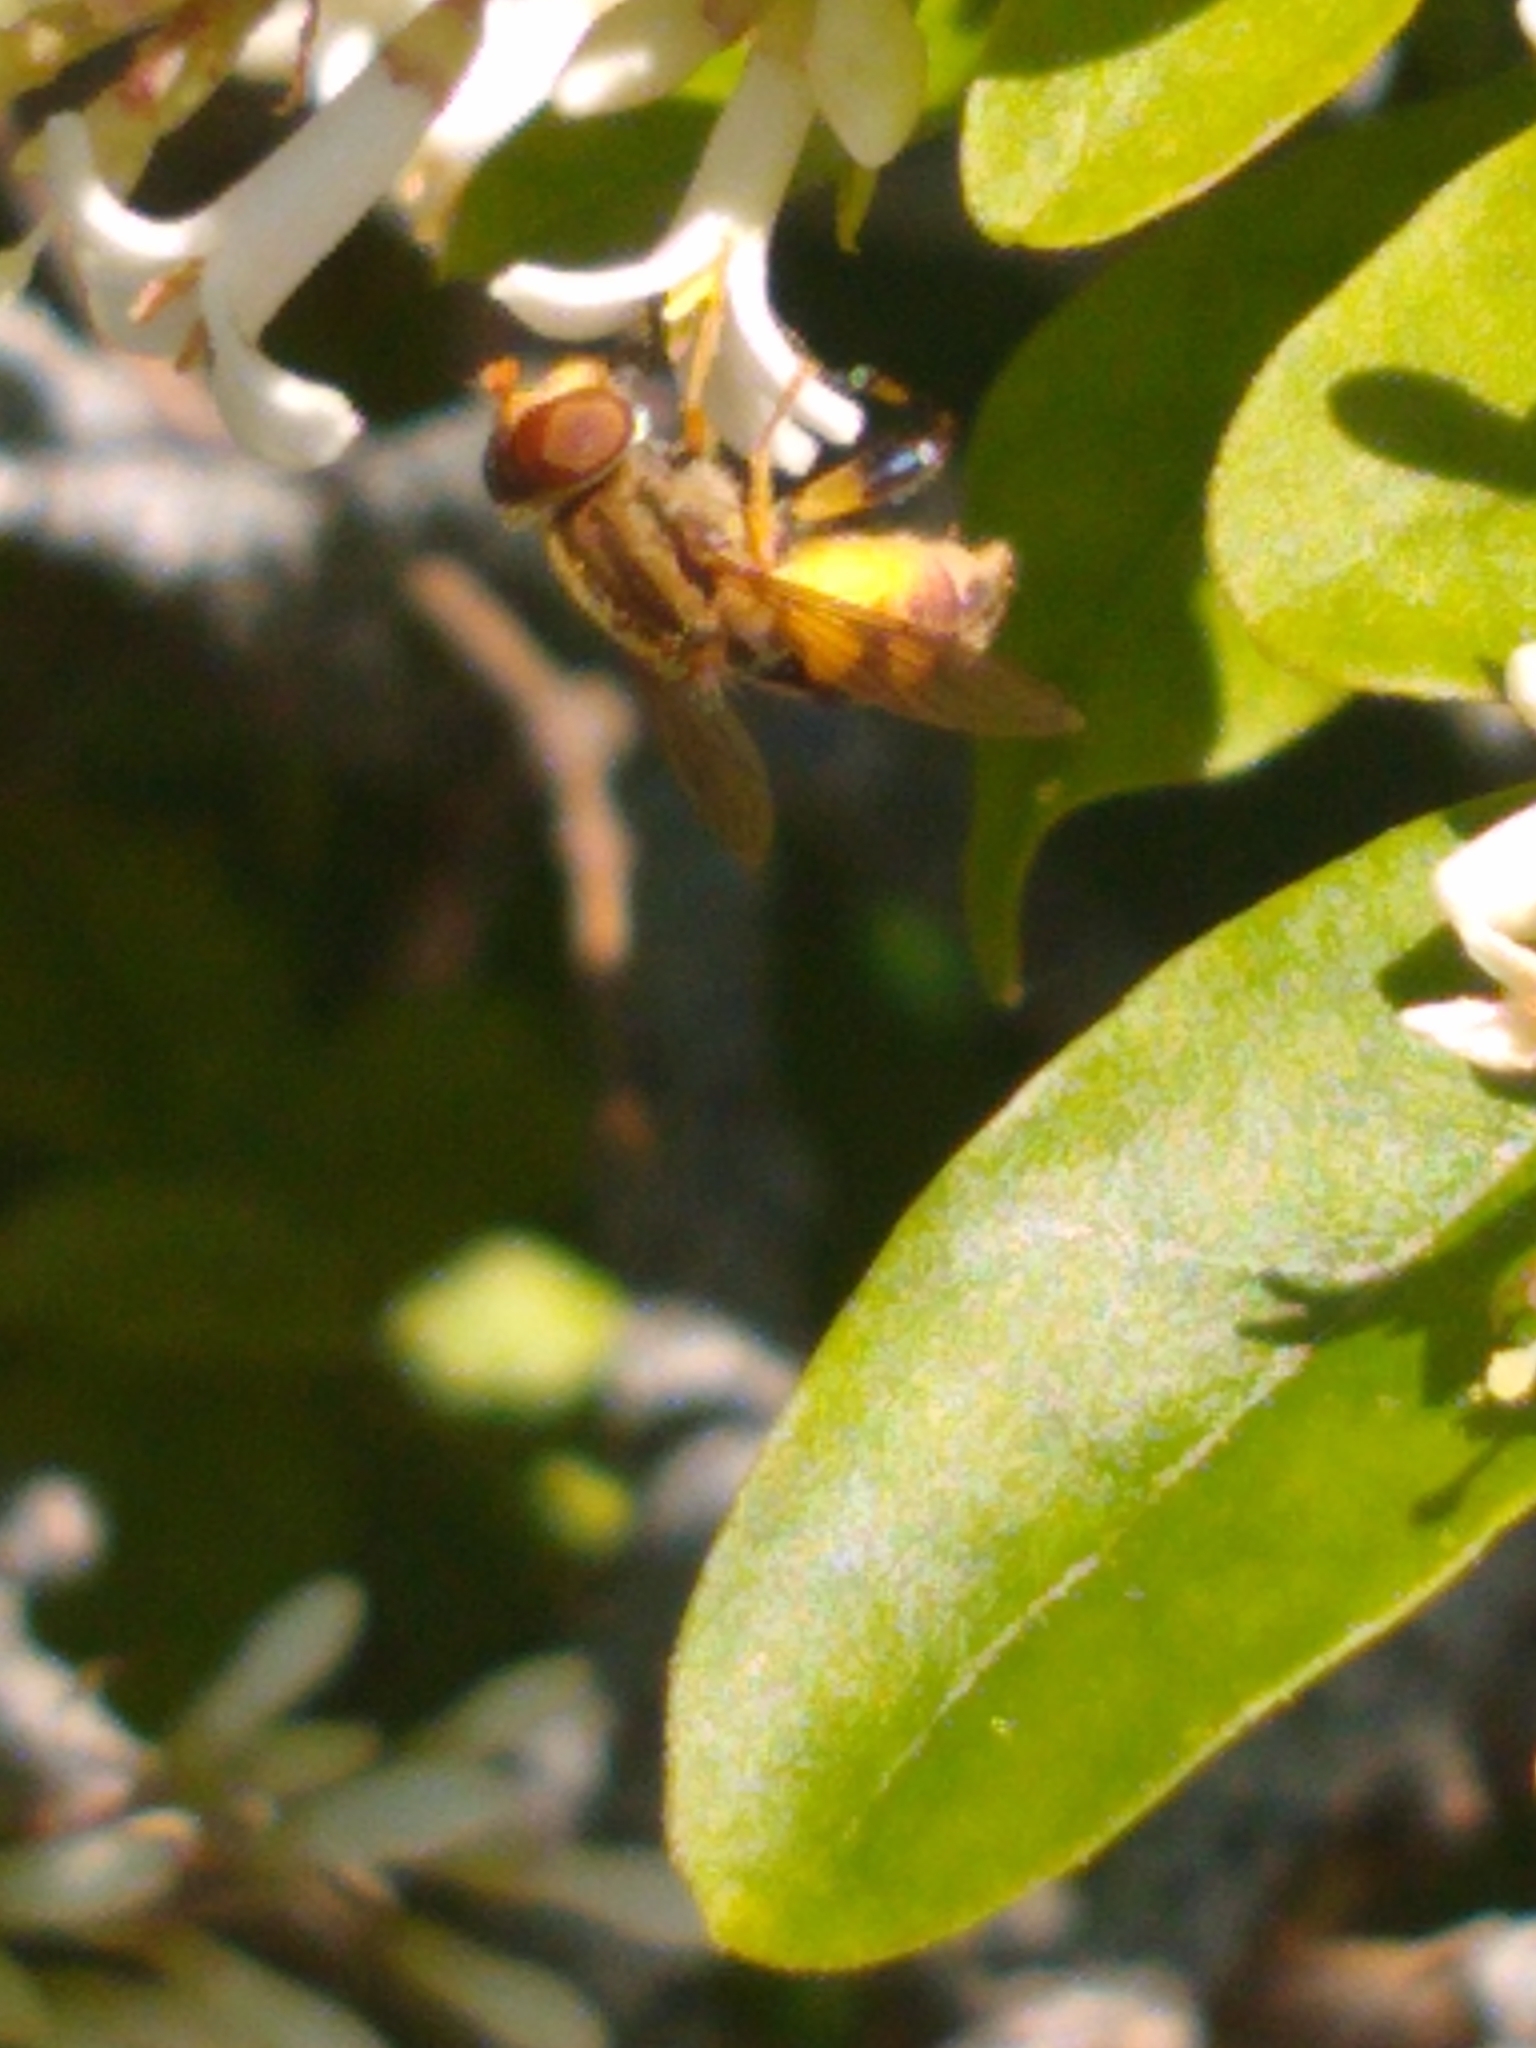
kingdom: Animalia
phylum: Arthropoda
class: Insecta
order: Diptera
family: Syrphidae
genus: Parhelophilus
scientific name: Parhelophilus integer
